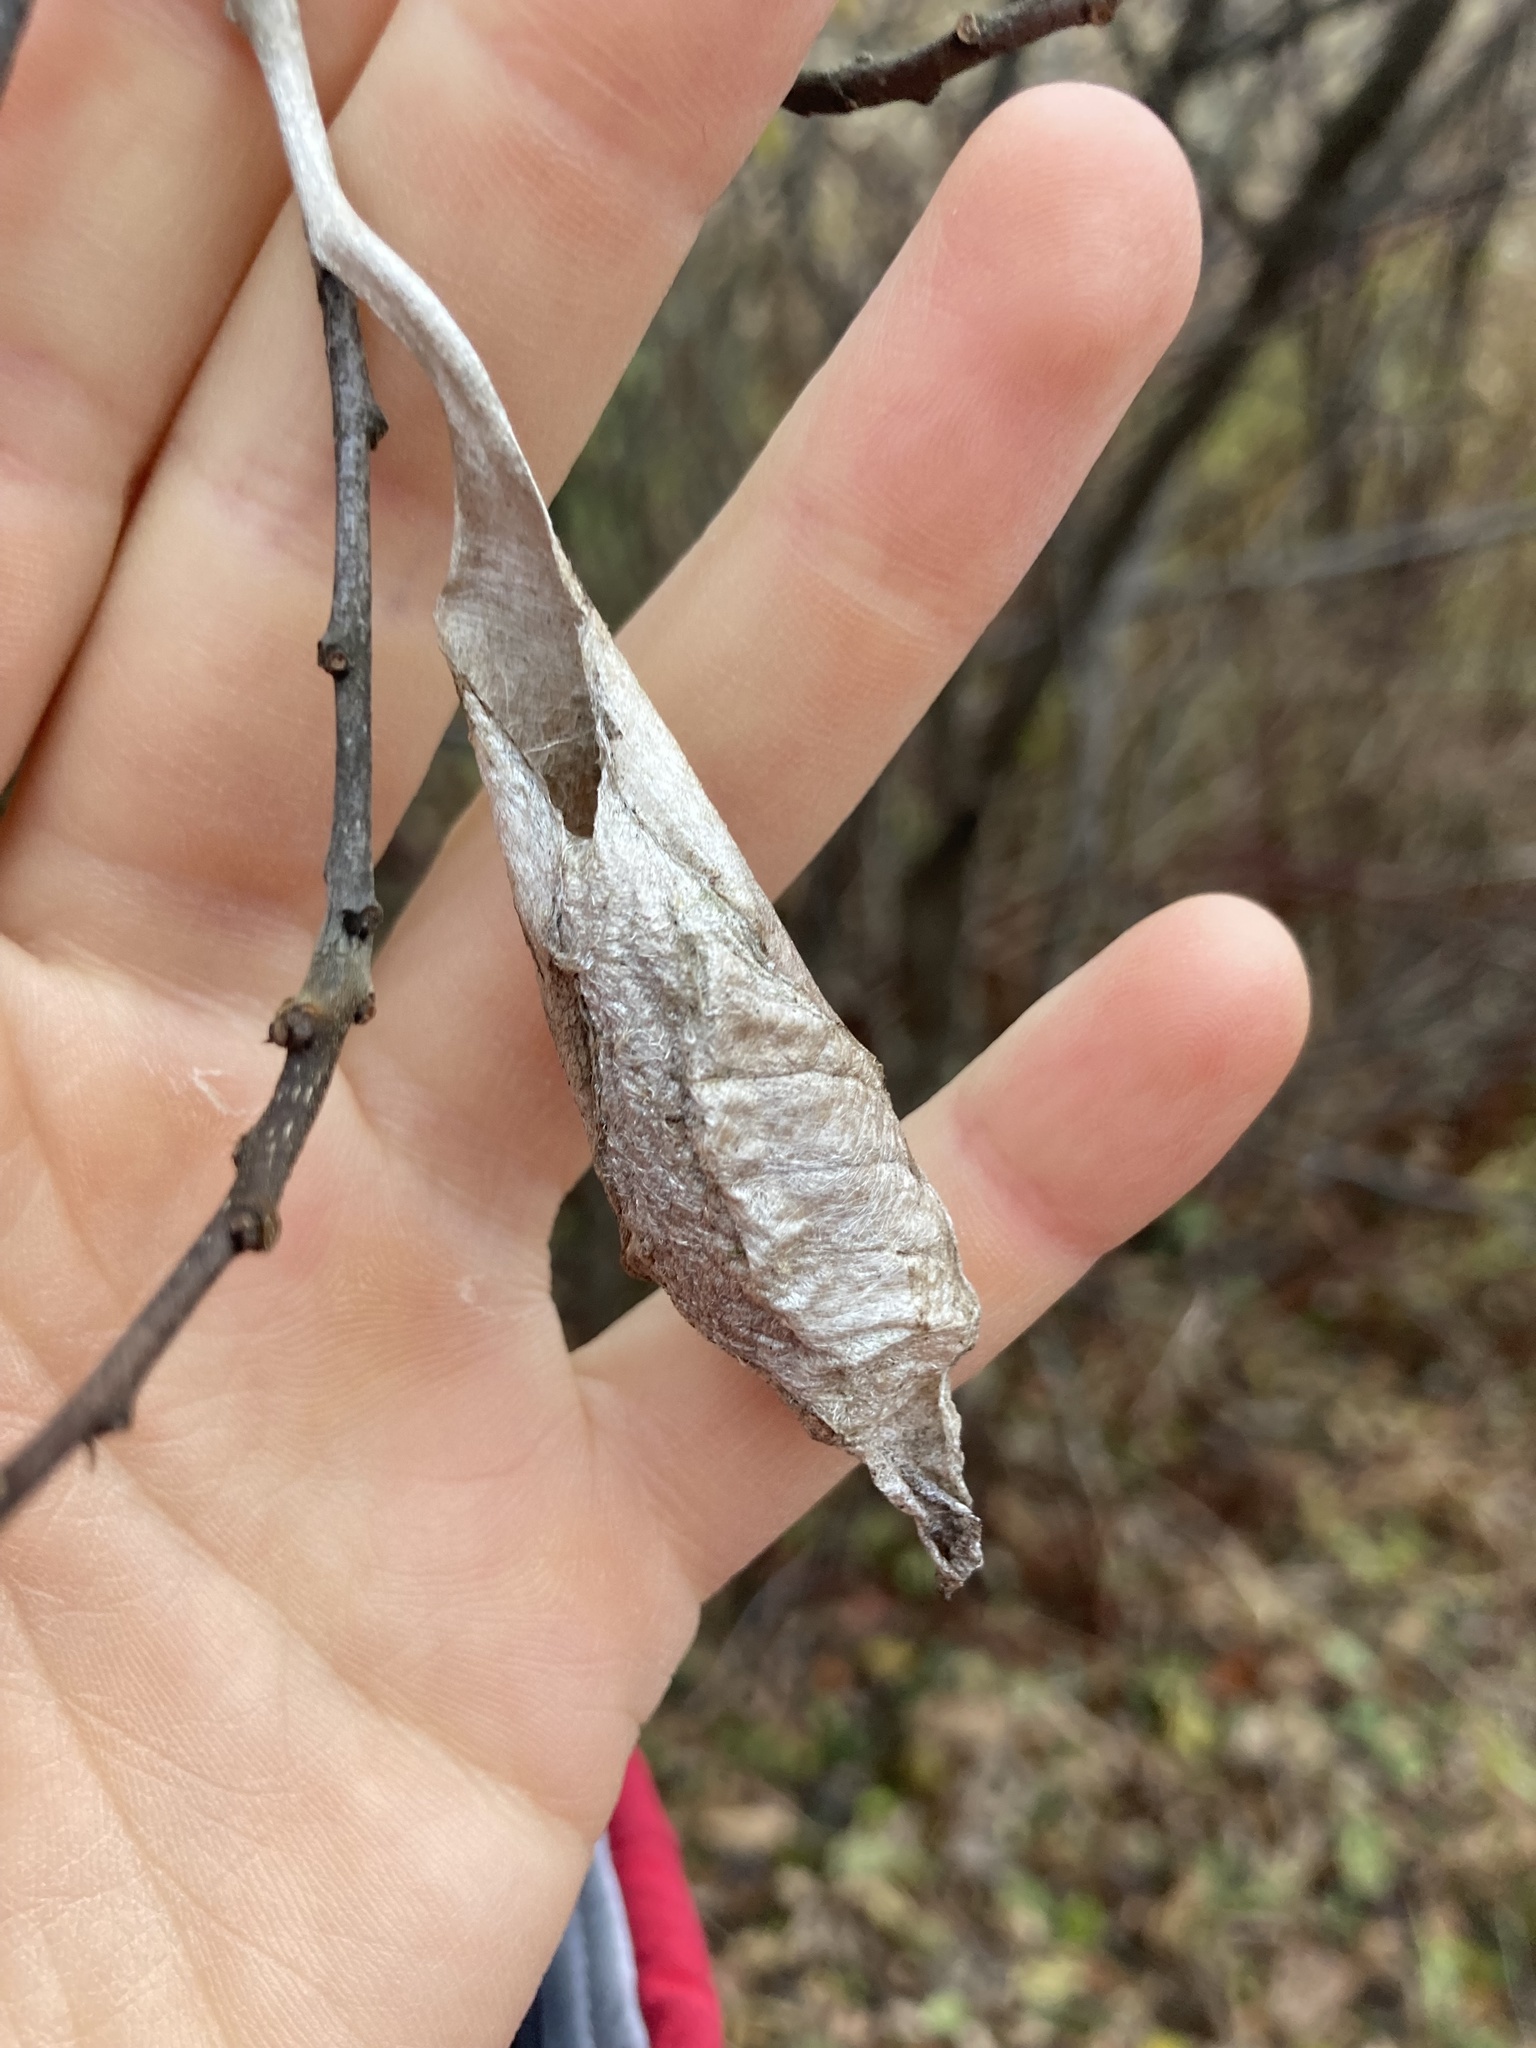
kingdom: Animalia
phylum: Arthropoda
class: Insecta
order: Lepidoptera
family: Saturniidae
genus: Callosamia
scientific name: Callosamia promethea
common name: Promethea silkmoth
